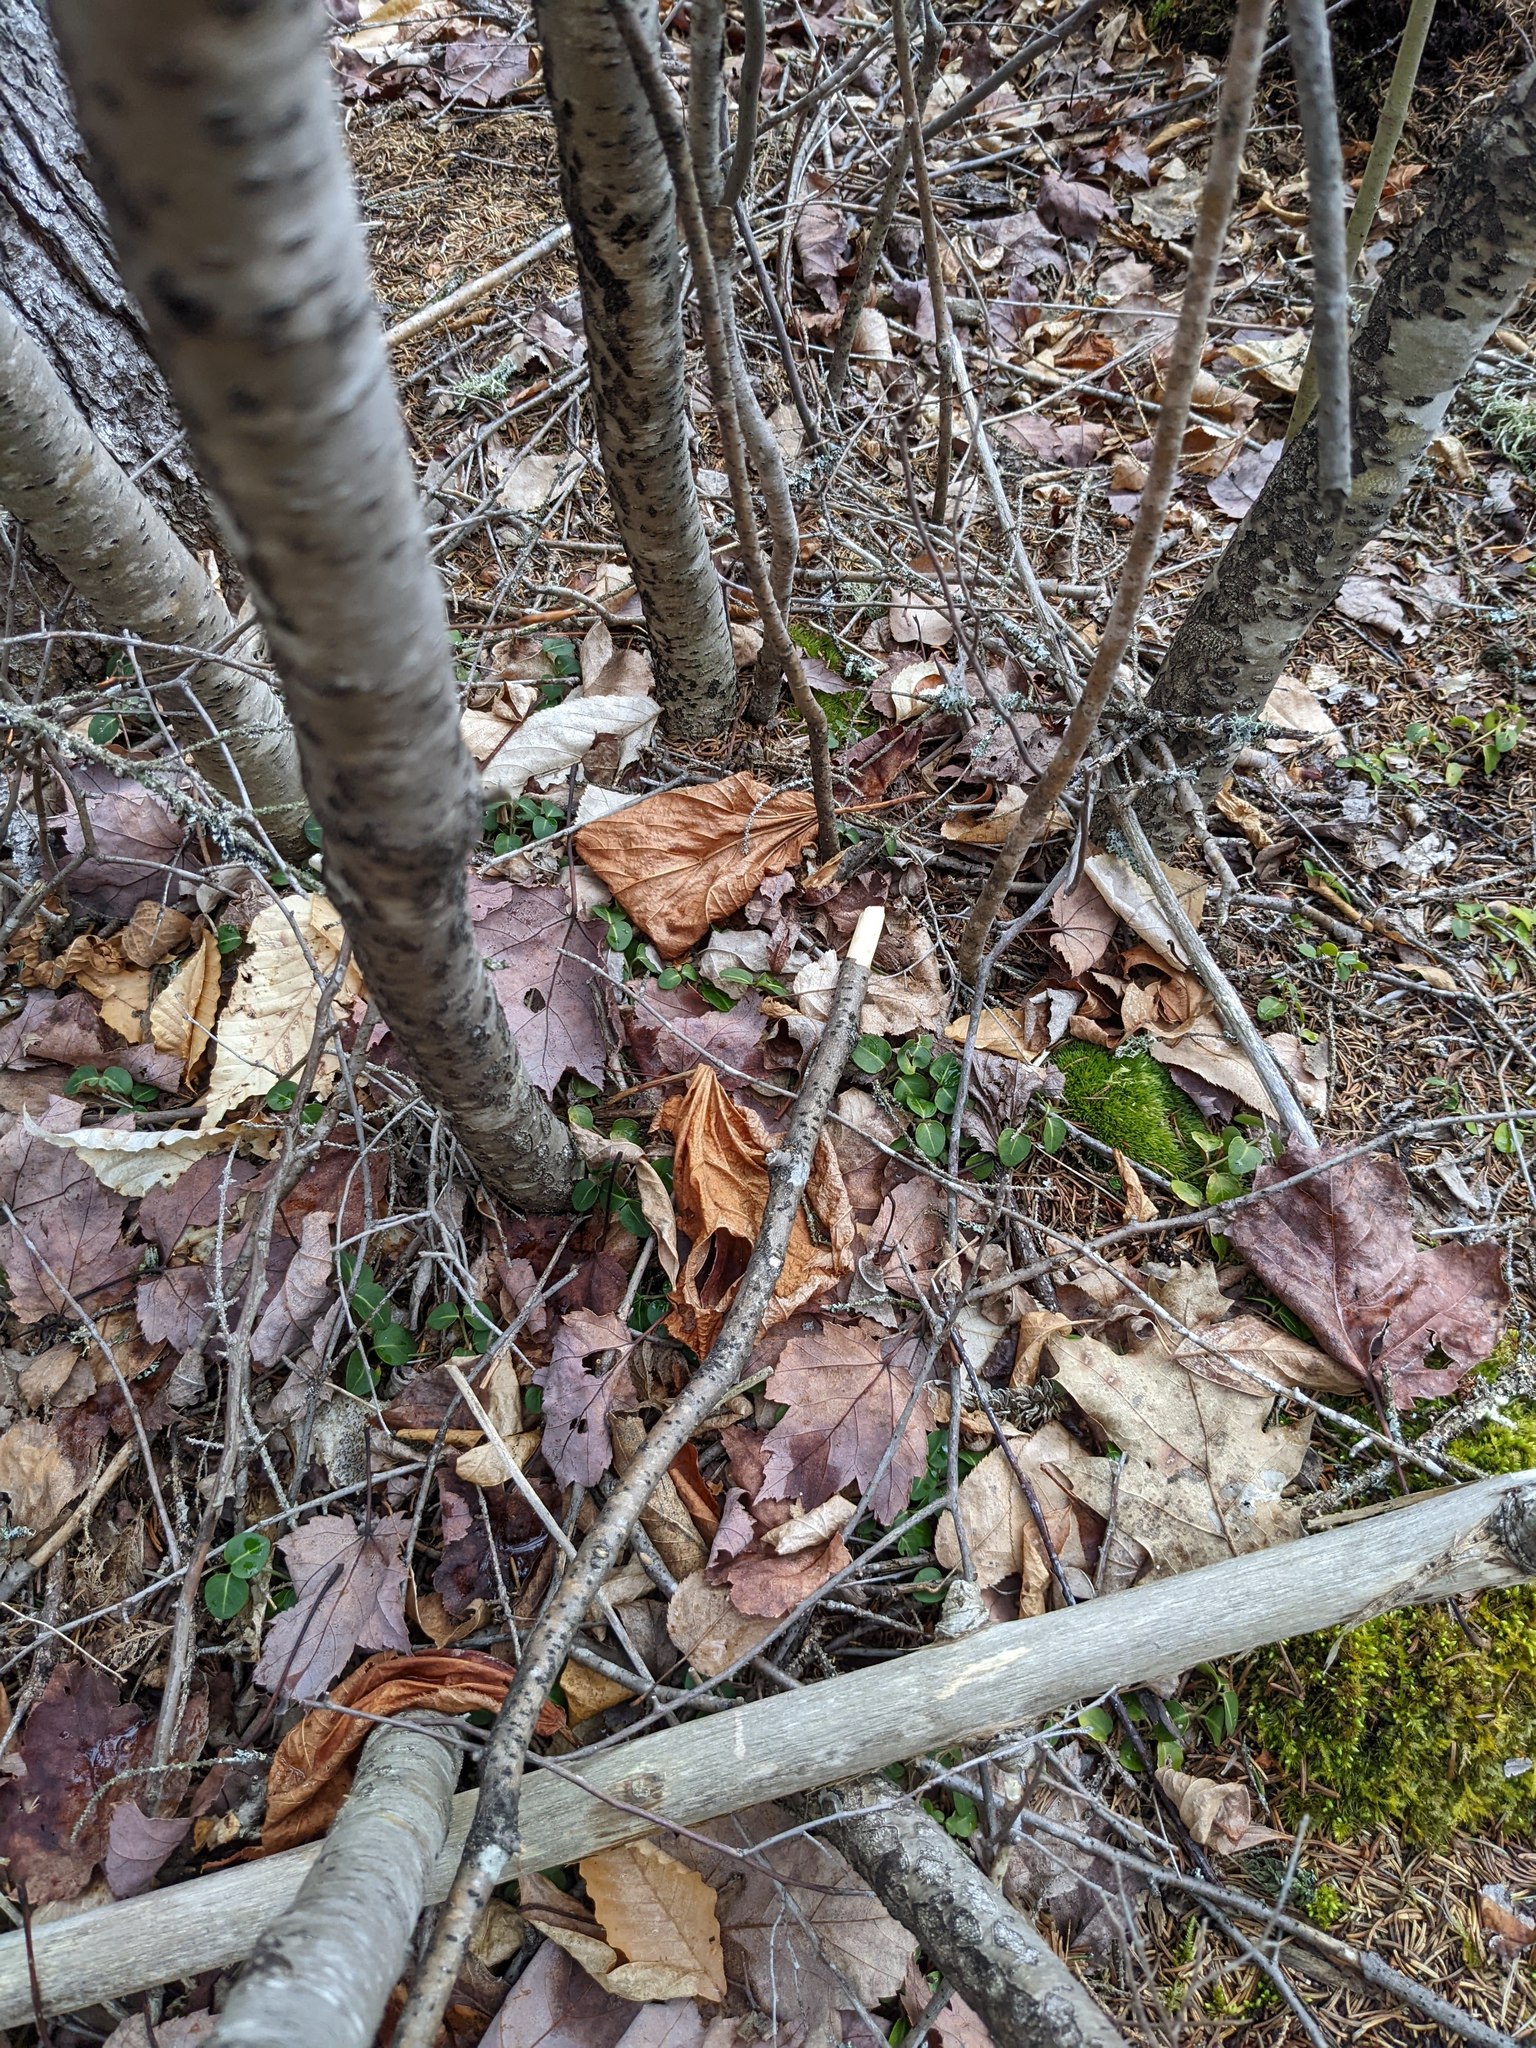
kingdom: Plantae
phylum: Tracheophyta
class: Magnoliopsida
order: Gentianales
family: Rubiaceae
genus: Mitchella
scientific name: Mitchella repens
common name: Partridge-berry
